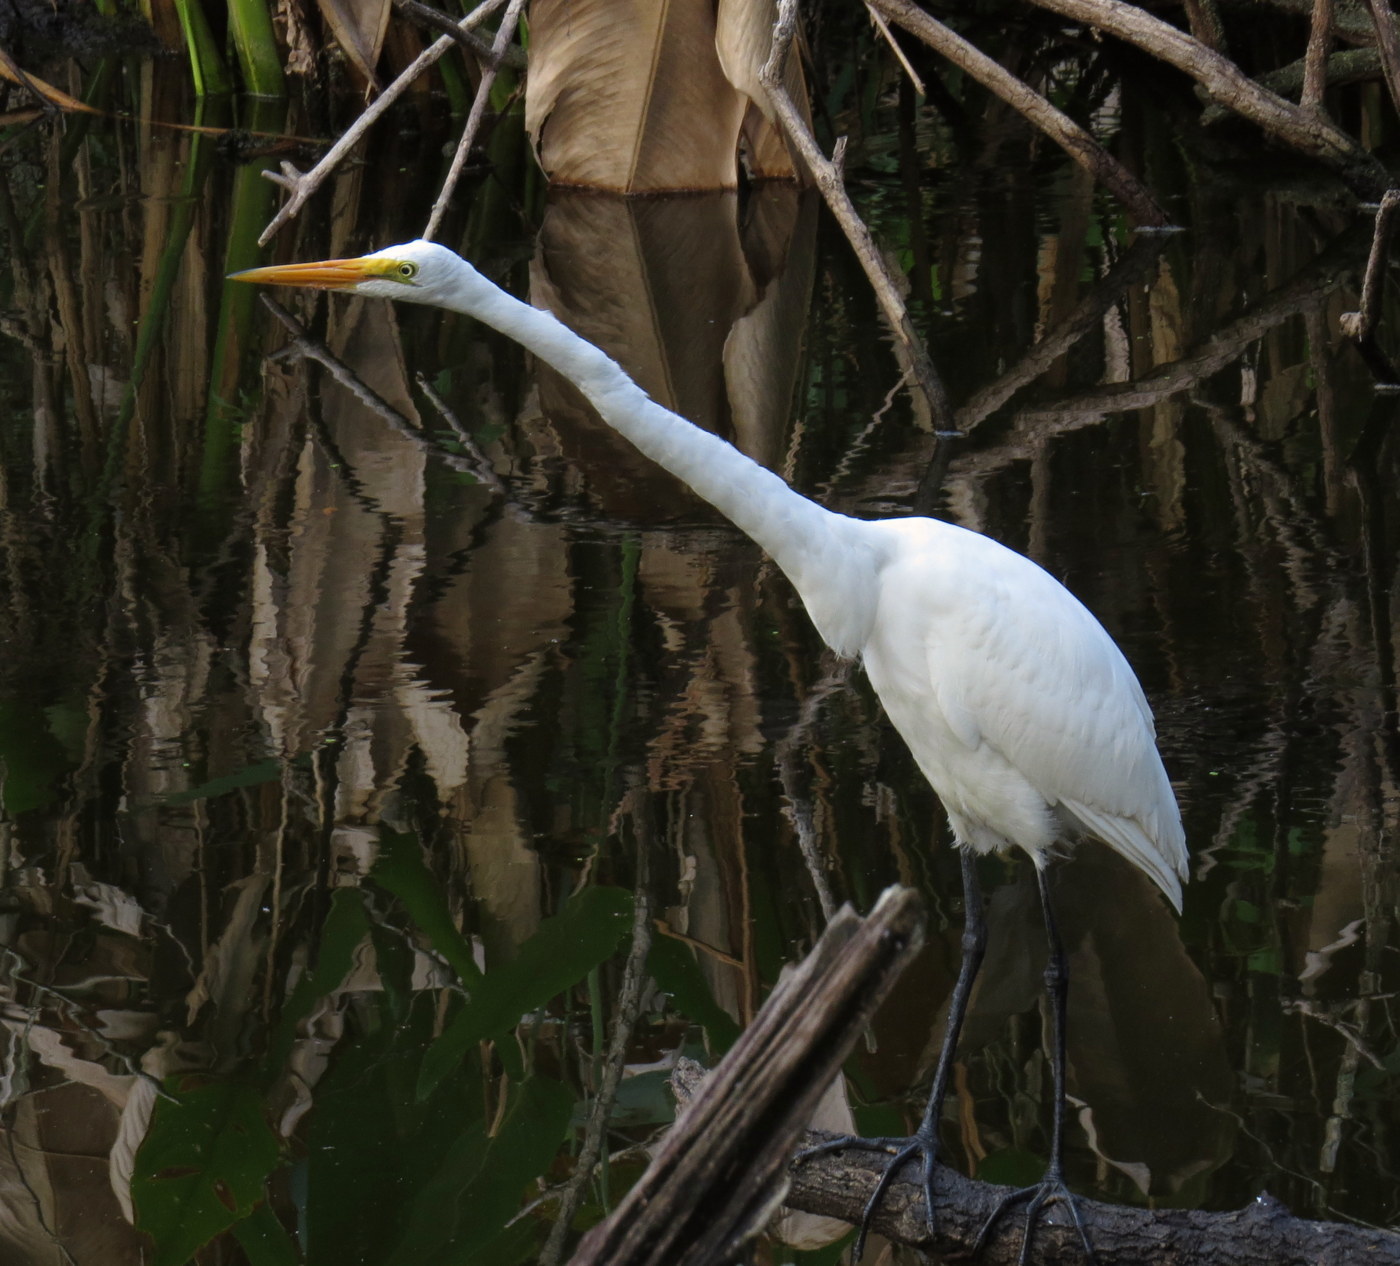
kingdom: Animalia
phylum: Chordata
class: Aves
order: Pelecaniformes
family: Ardeidae
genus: Ardea
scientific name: Ardea alba
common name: Great egret
